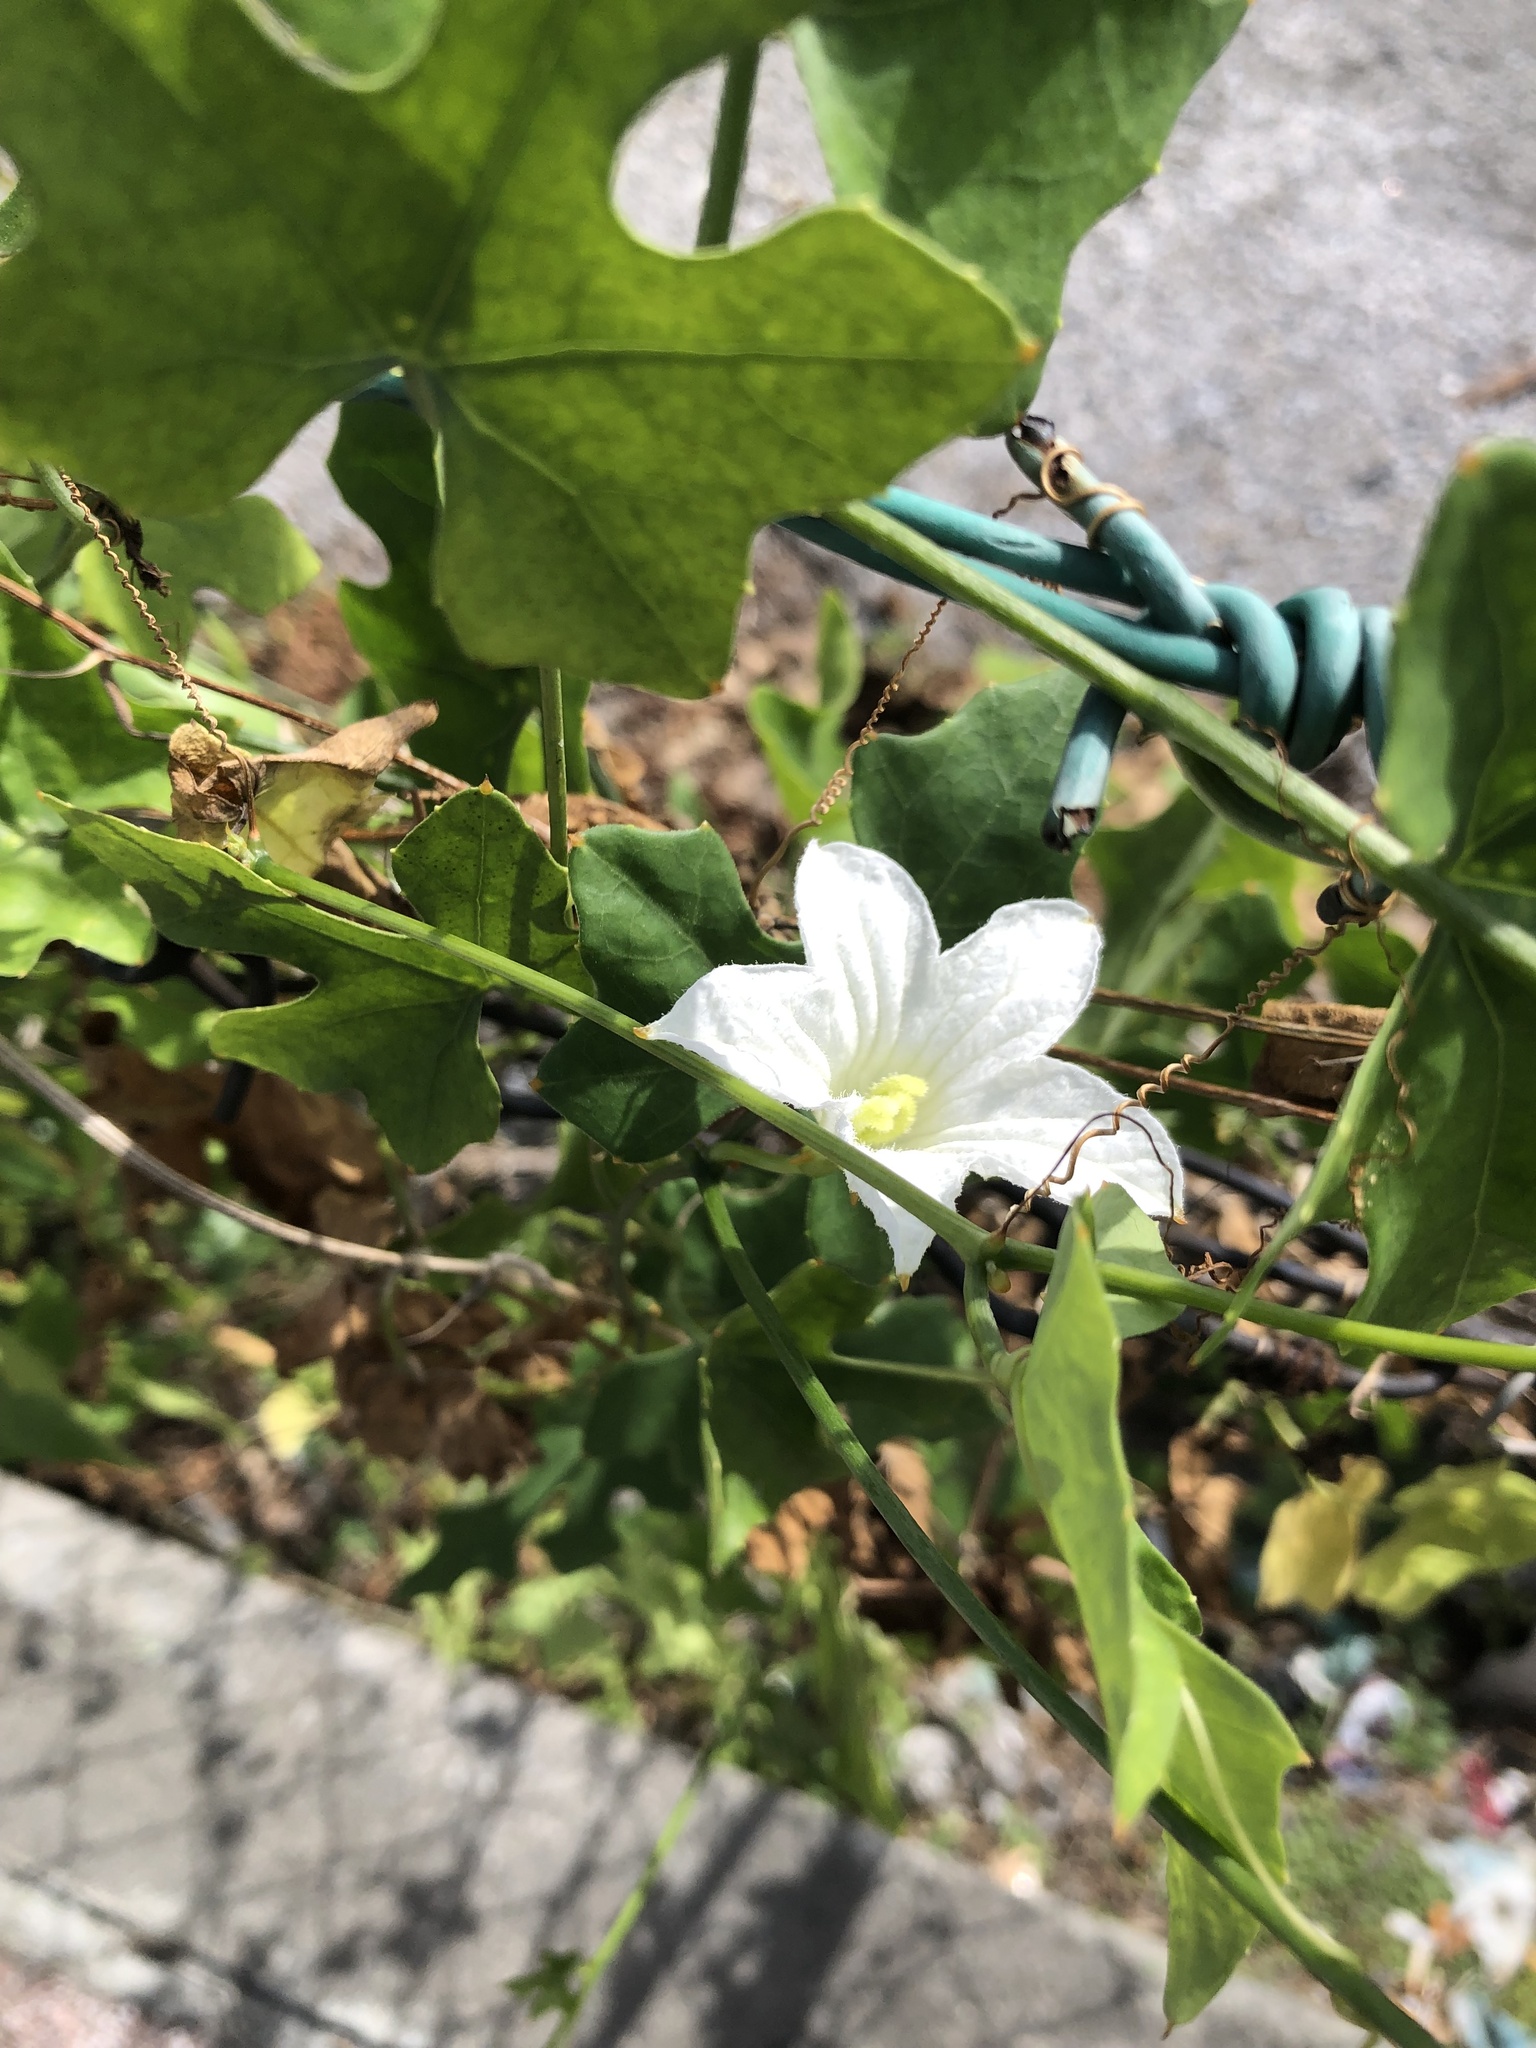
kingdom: Plantae
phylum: Tracheophyta
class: Magnoliopsida
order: Cucurbitales
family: Cucurbitaceae
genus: Coccinia
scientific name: Coccinia grandis
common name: Ivy gourd
